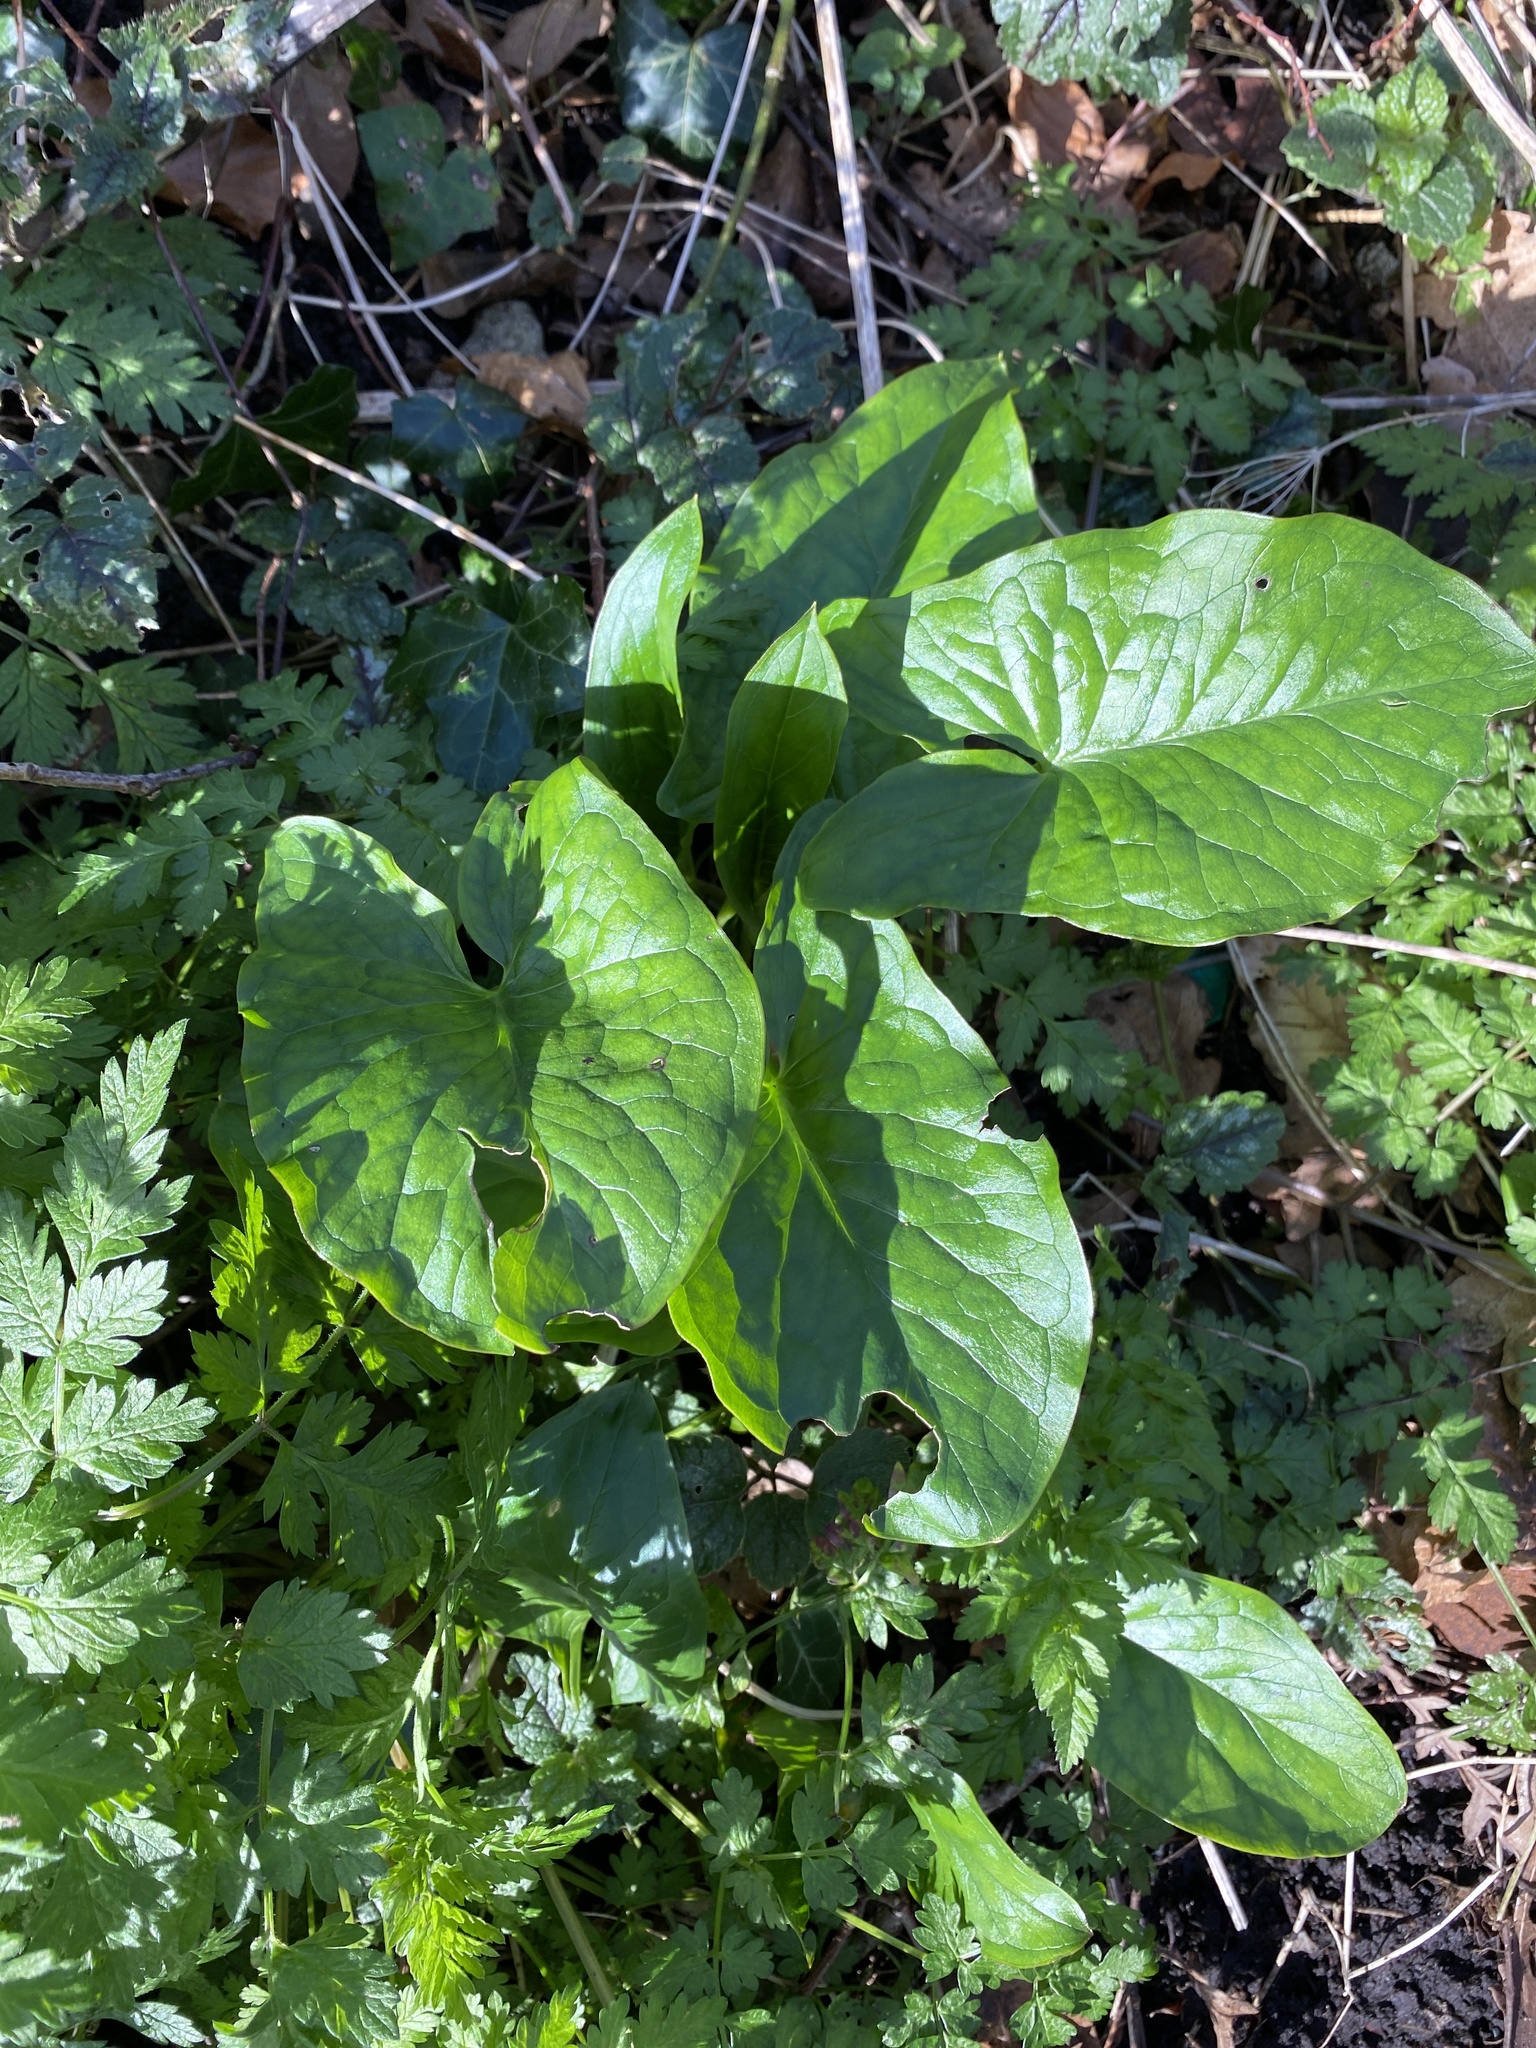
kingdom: Plantae
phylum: Tracheophyta
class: Liliopsida
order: Alismatales
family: Araceae
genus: Arum
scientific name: Arum maculatum
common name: Lords-and-ladies
